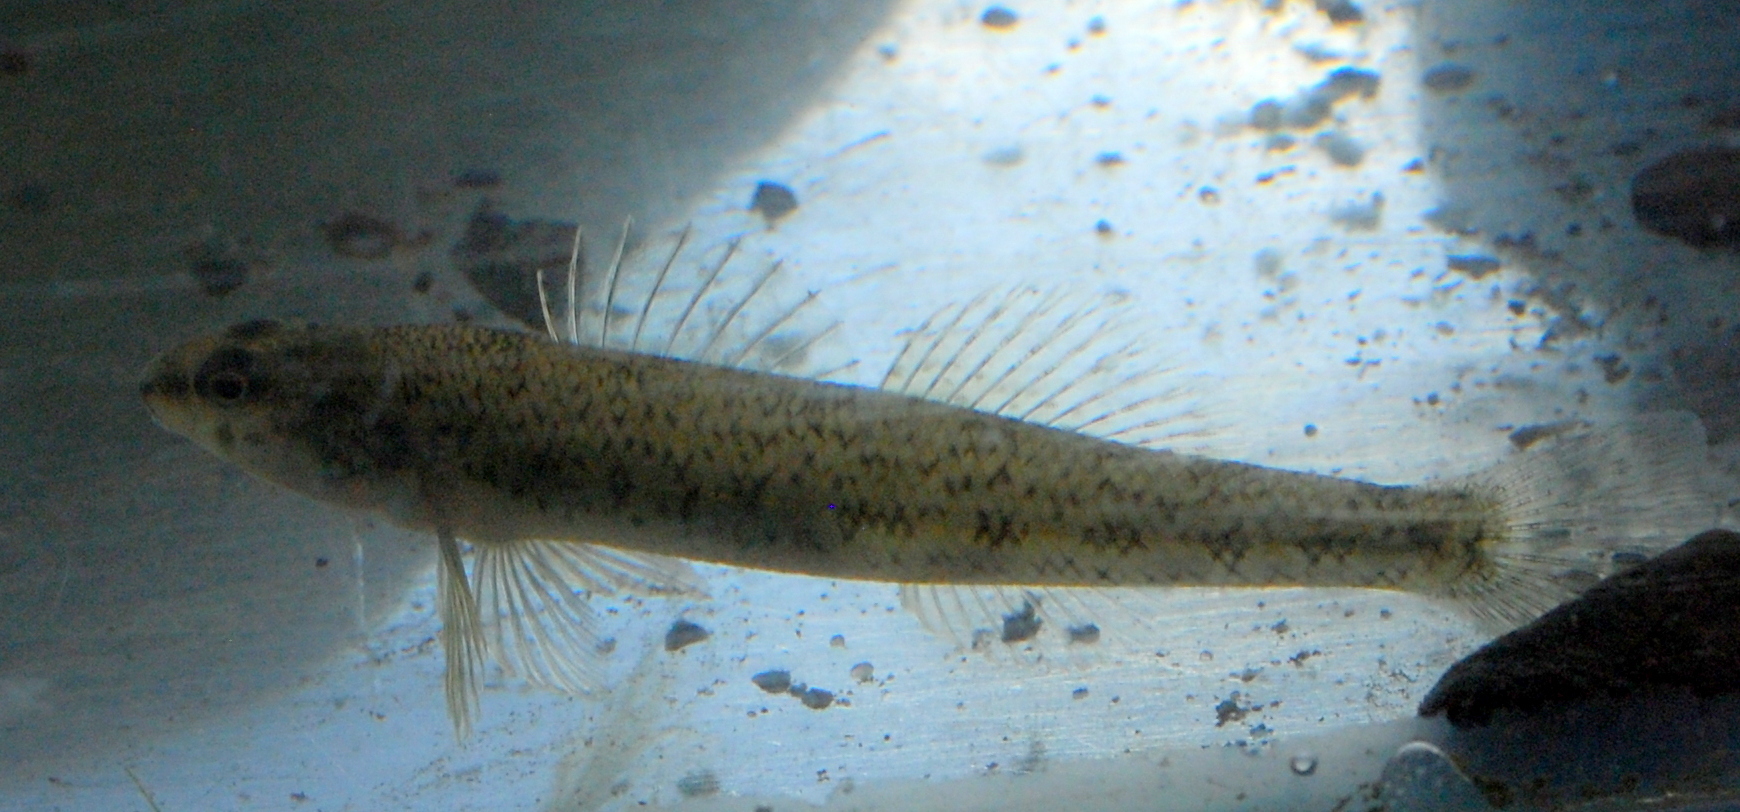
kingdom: Animalia
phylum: Chordata
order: Perciformes
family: Percidae
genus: Etheostoma
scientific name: Etheostoma nigrum
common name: Johnny darter
